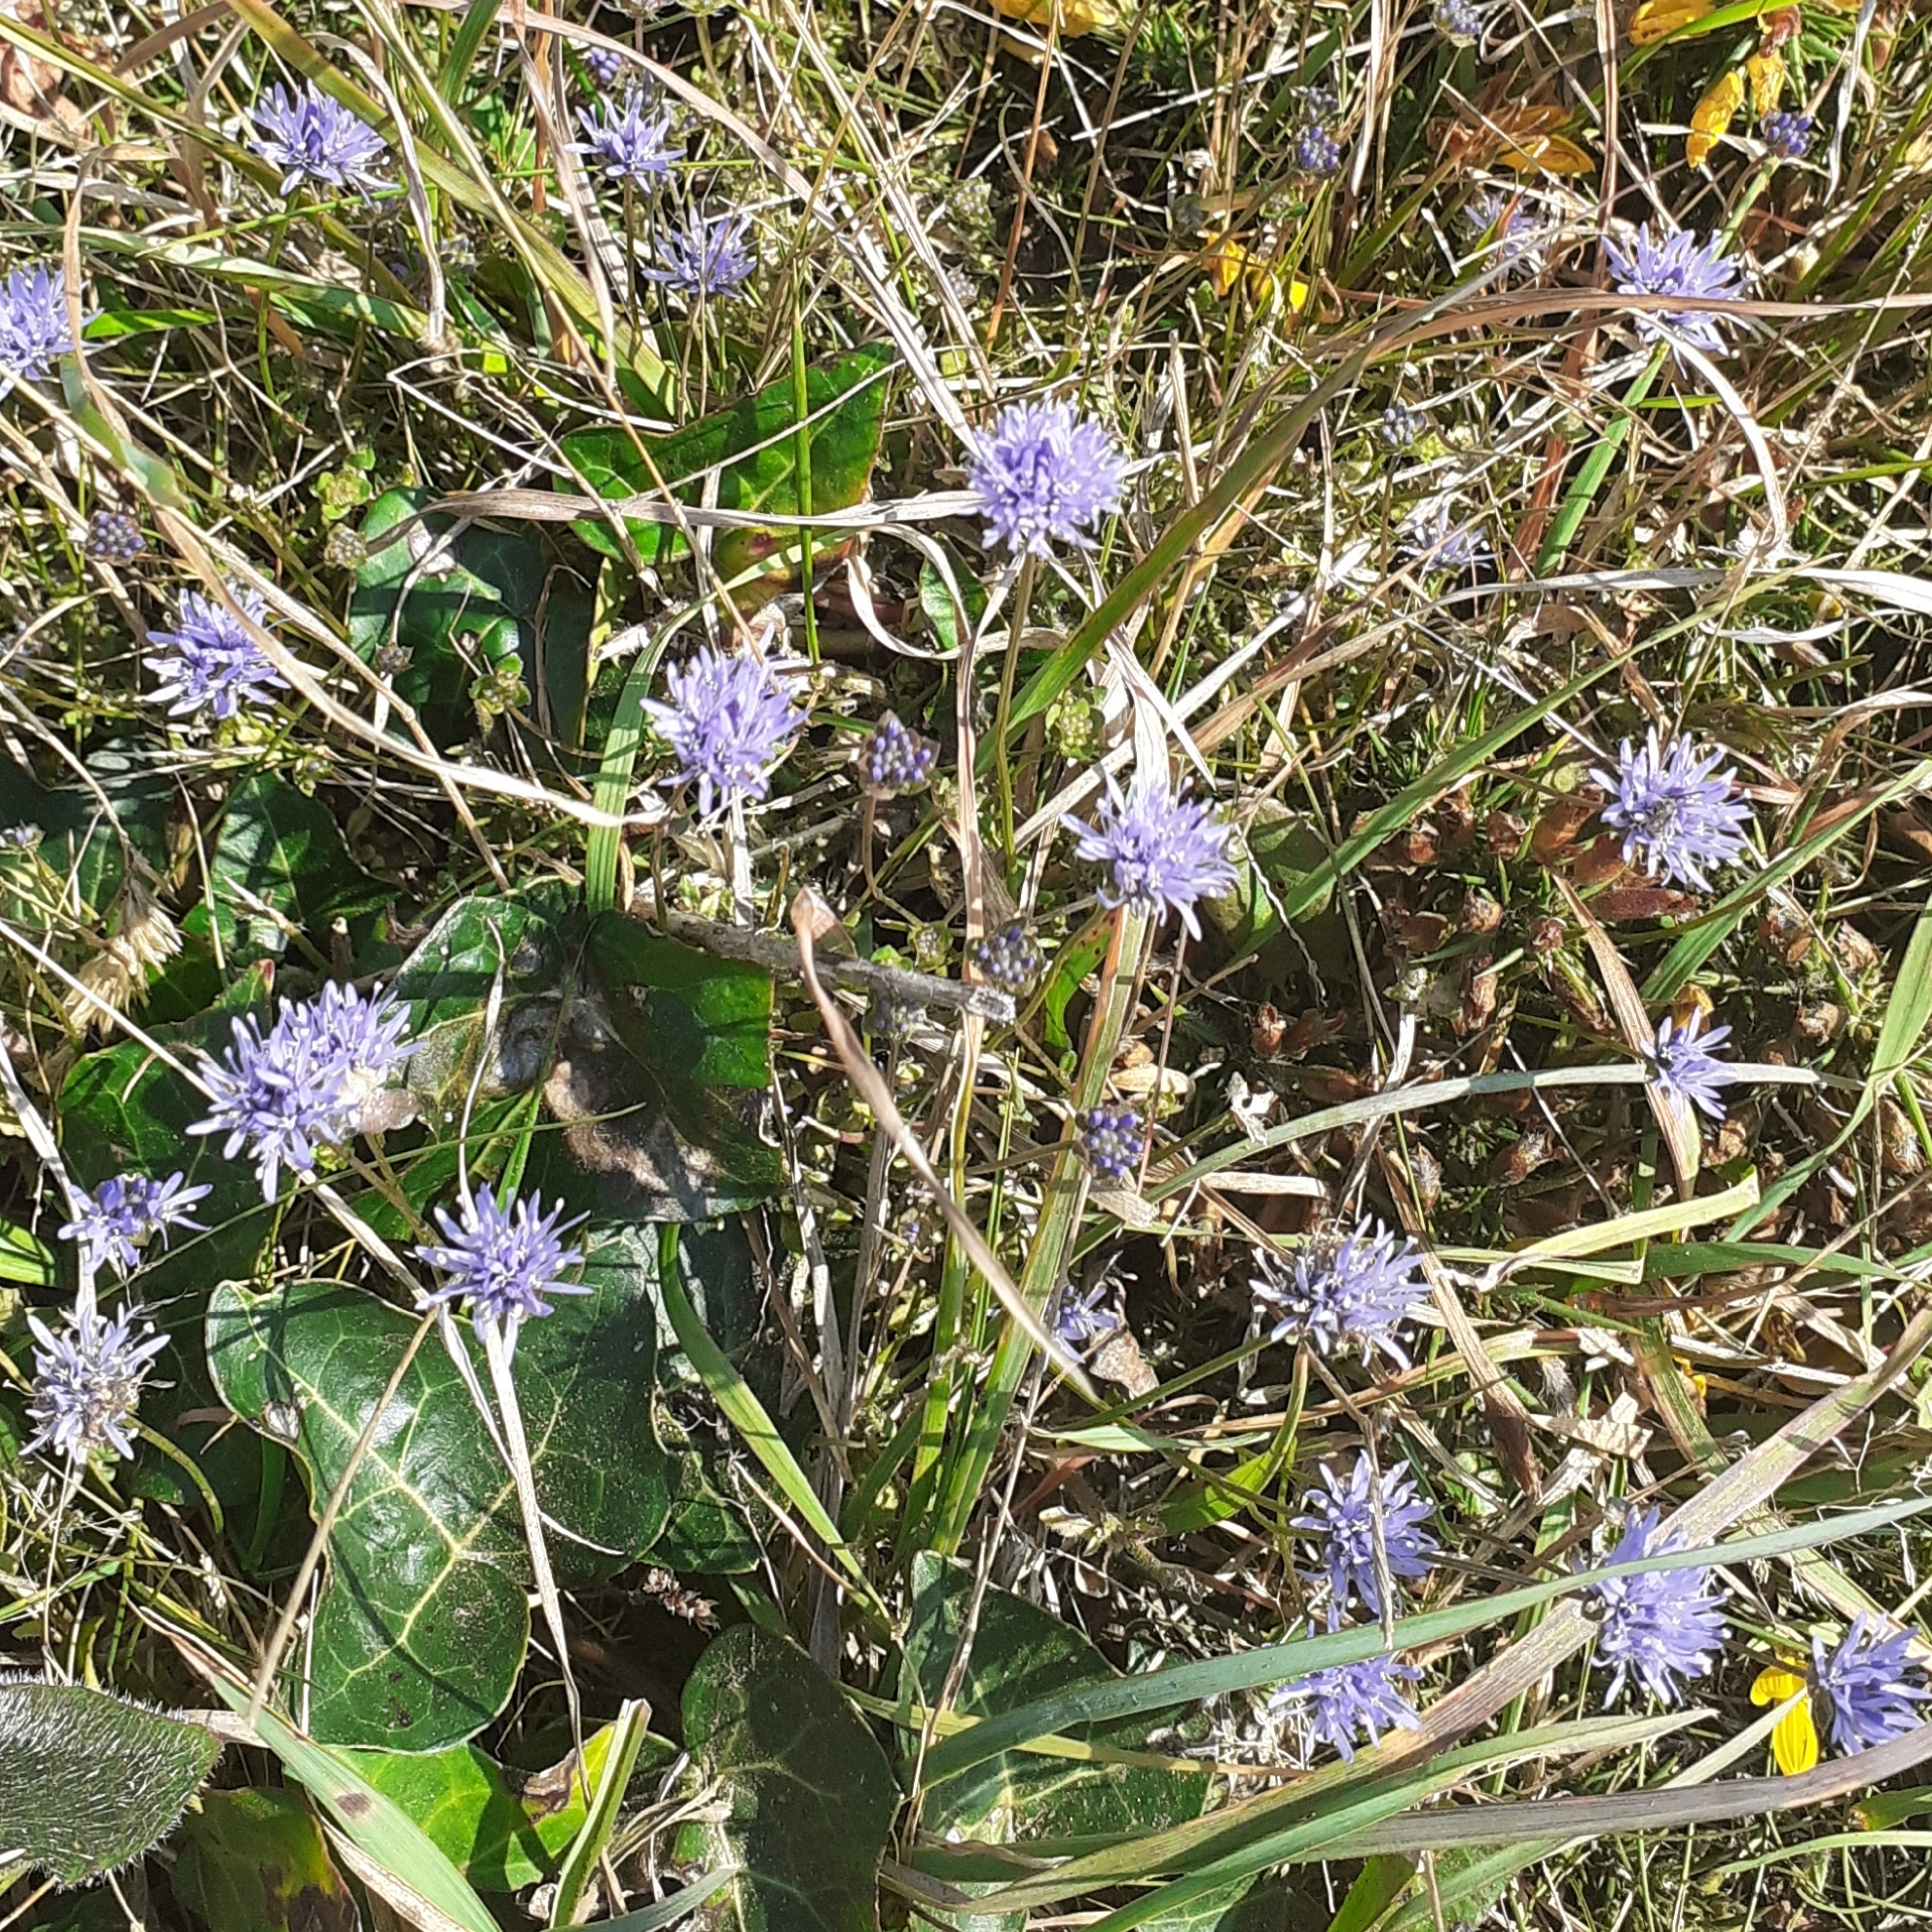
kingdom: Plantae
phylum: Tracheophyta
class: Magnoliopsida
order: Asterales
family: Campanulaceae
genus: Jasione
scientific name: Jasione montana
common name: Sheep's-bit
